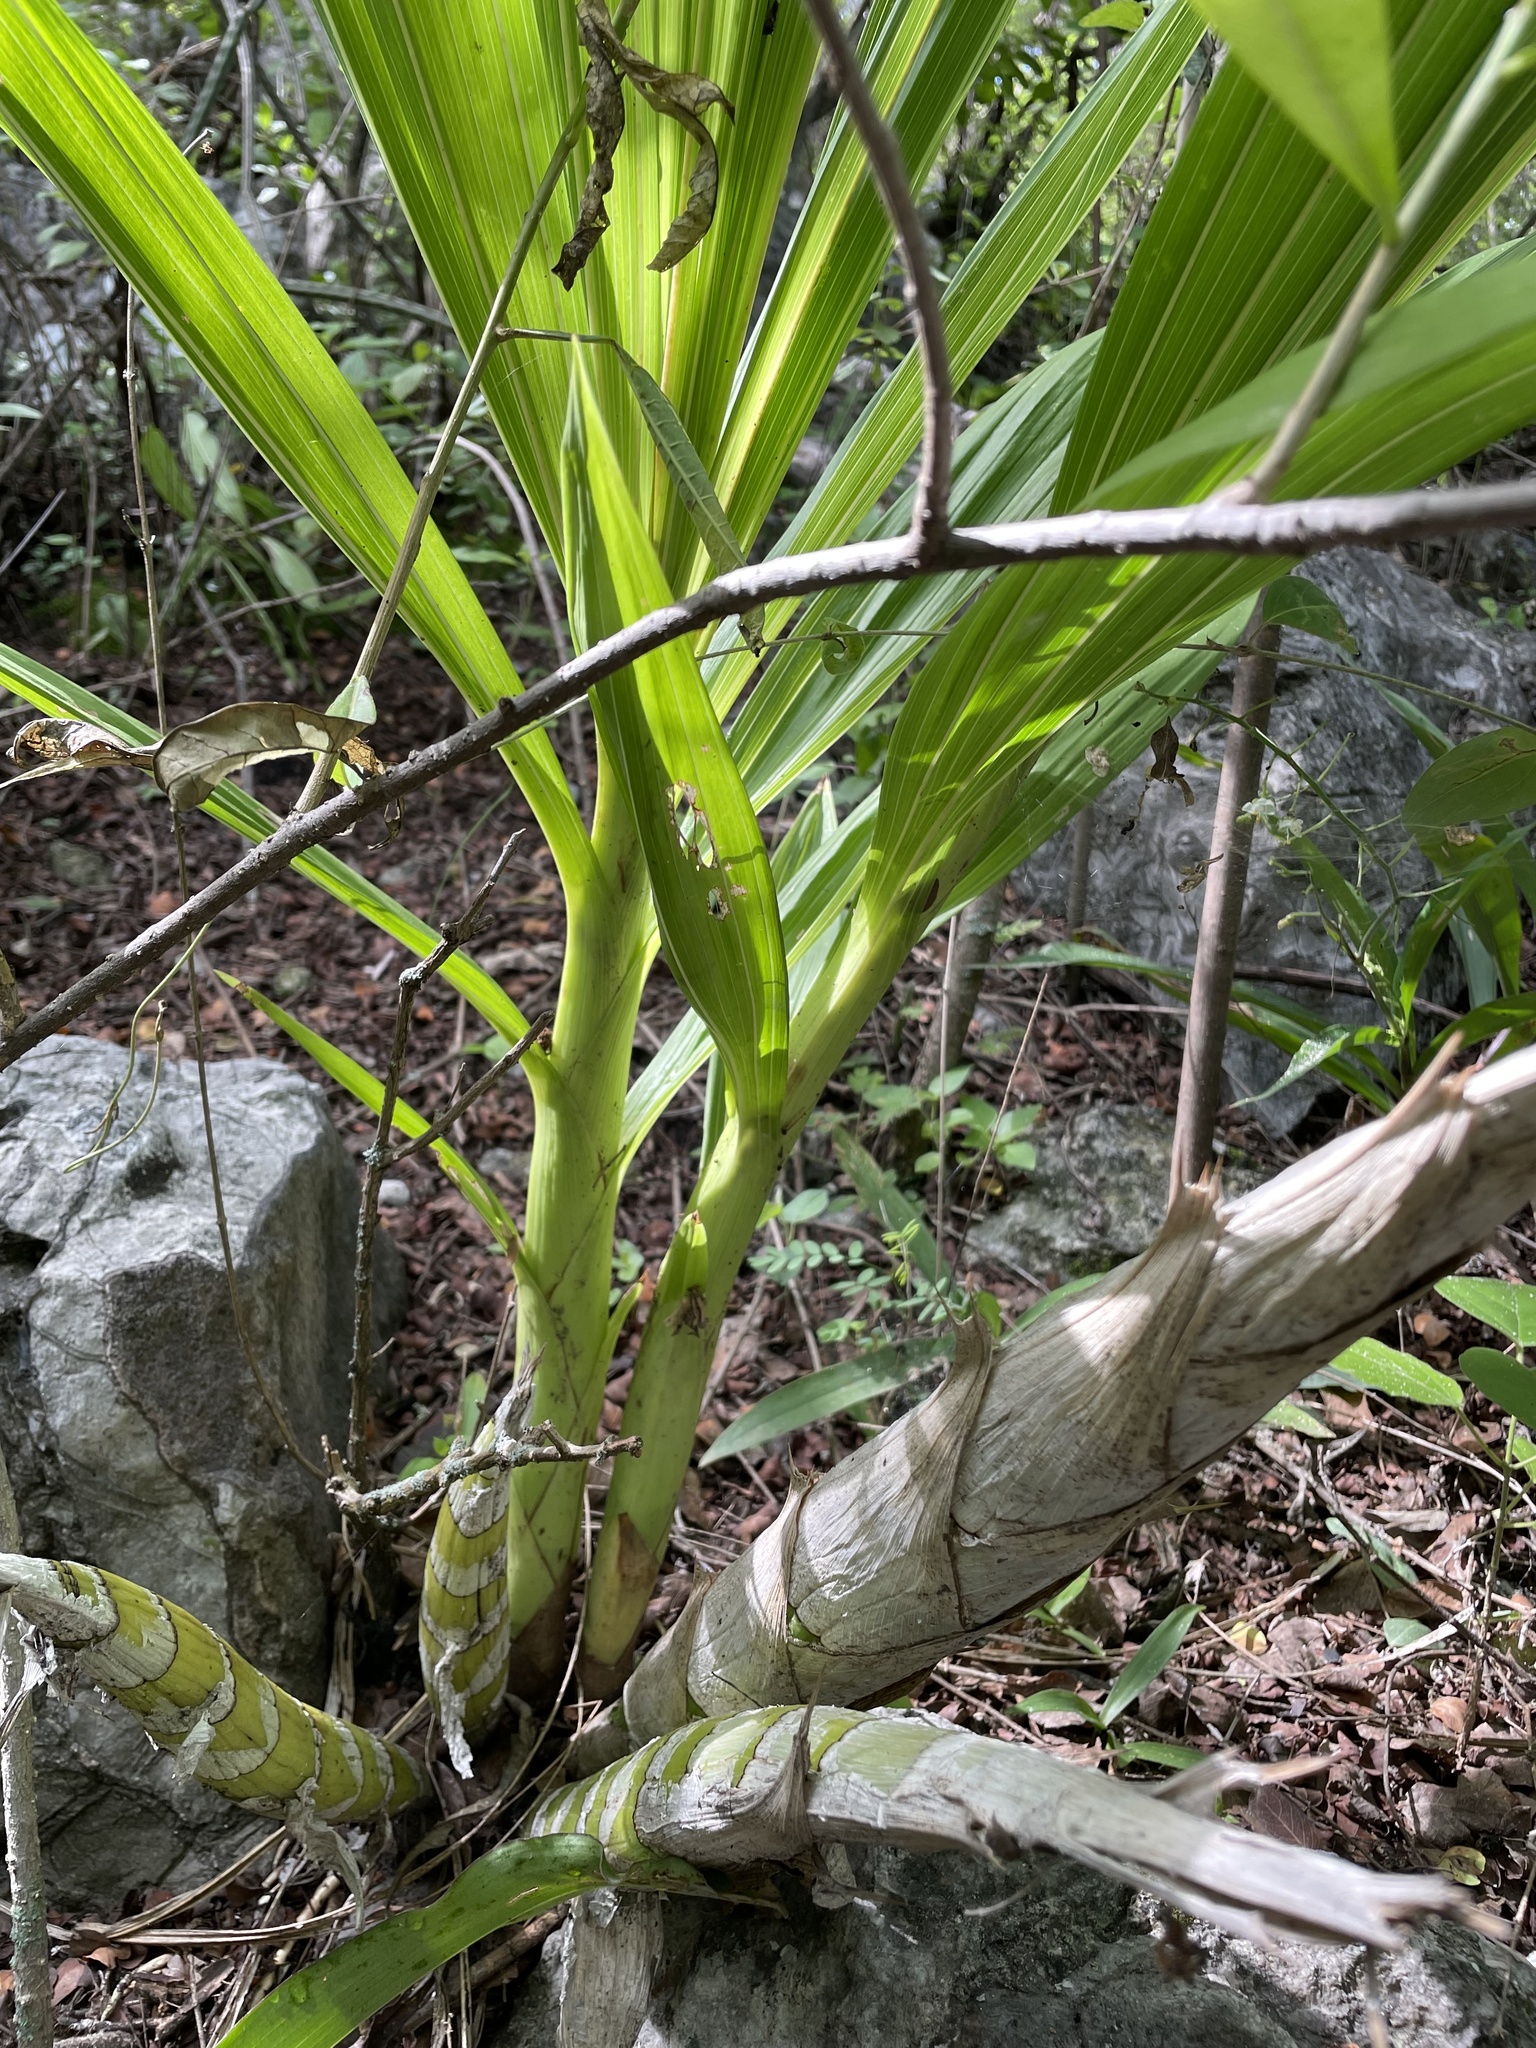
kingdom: Plantae
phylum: Tracheophyta
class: Liliopsida
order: Asparagales
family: Orchidaceae
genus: Cyrtopodium
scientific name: Cyrtopodium macrobulbon
